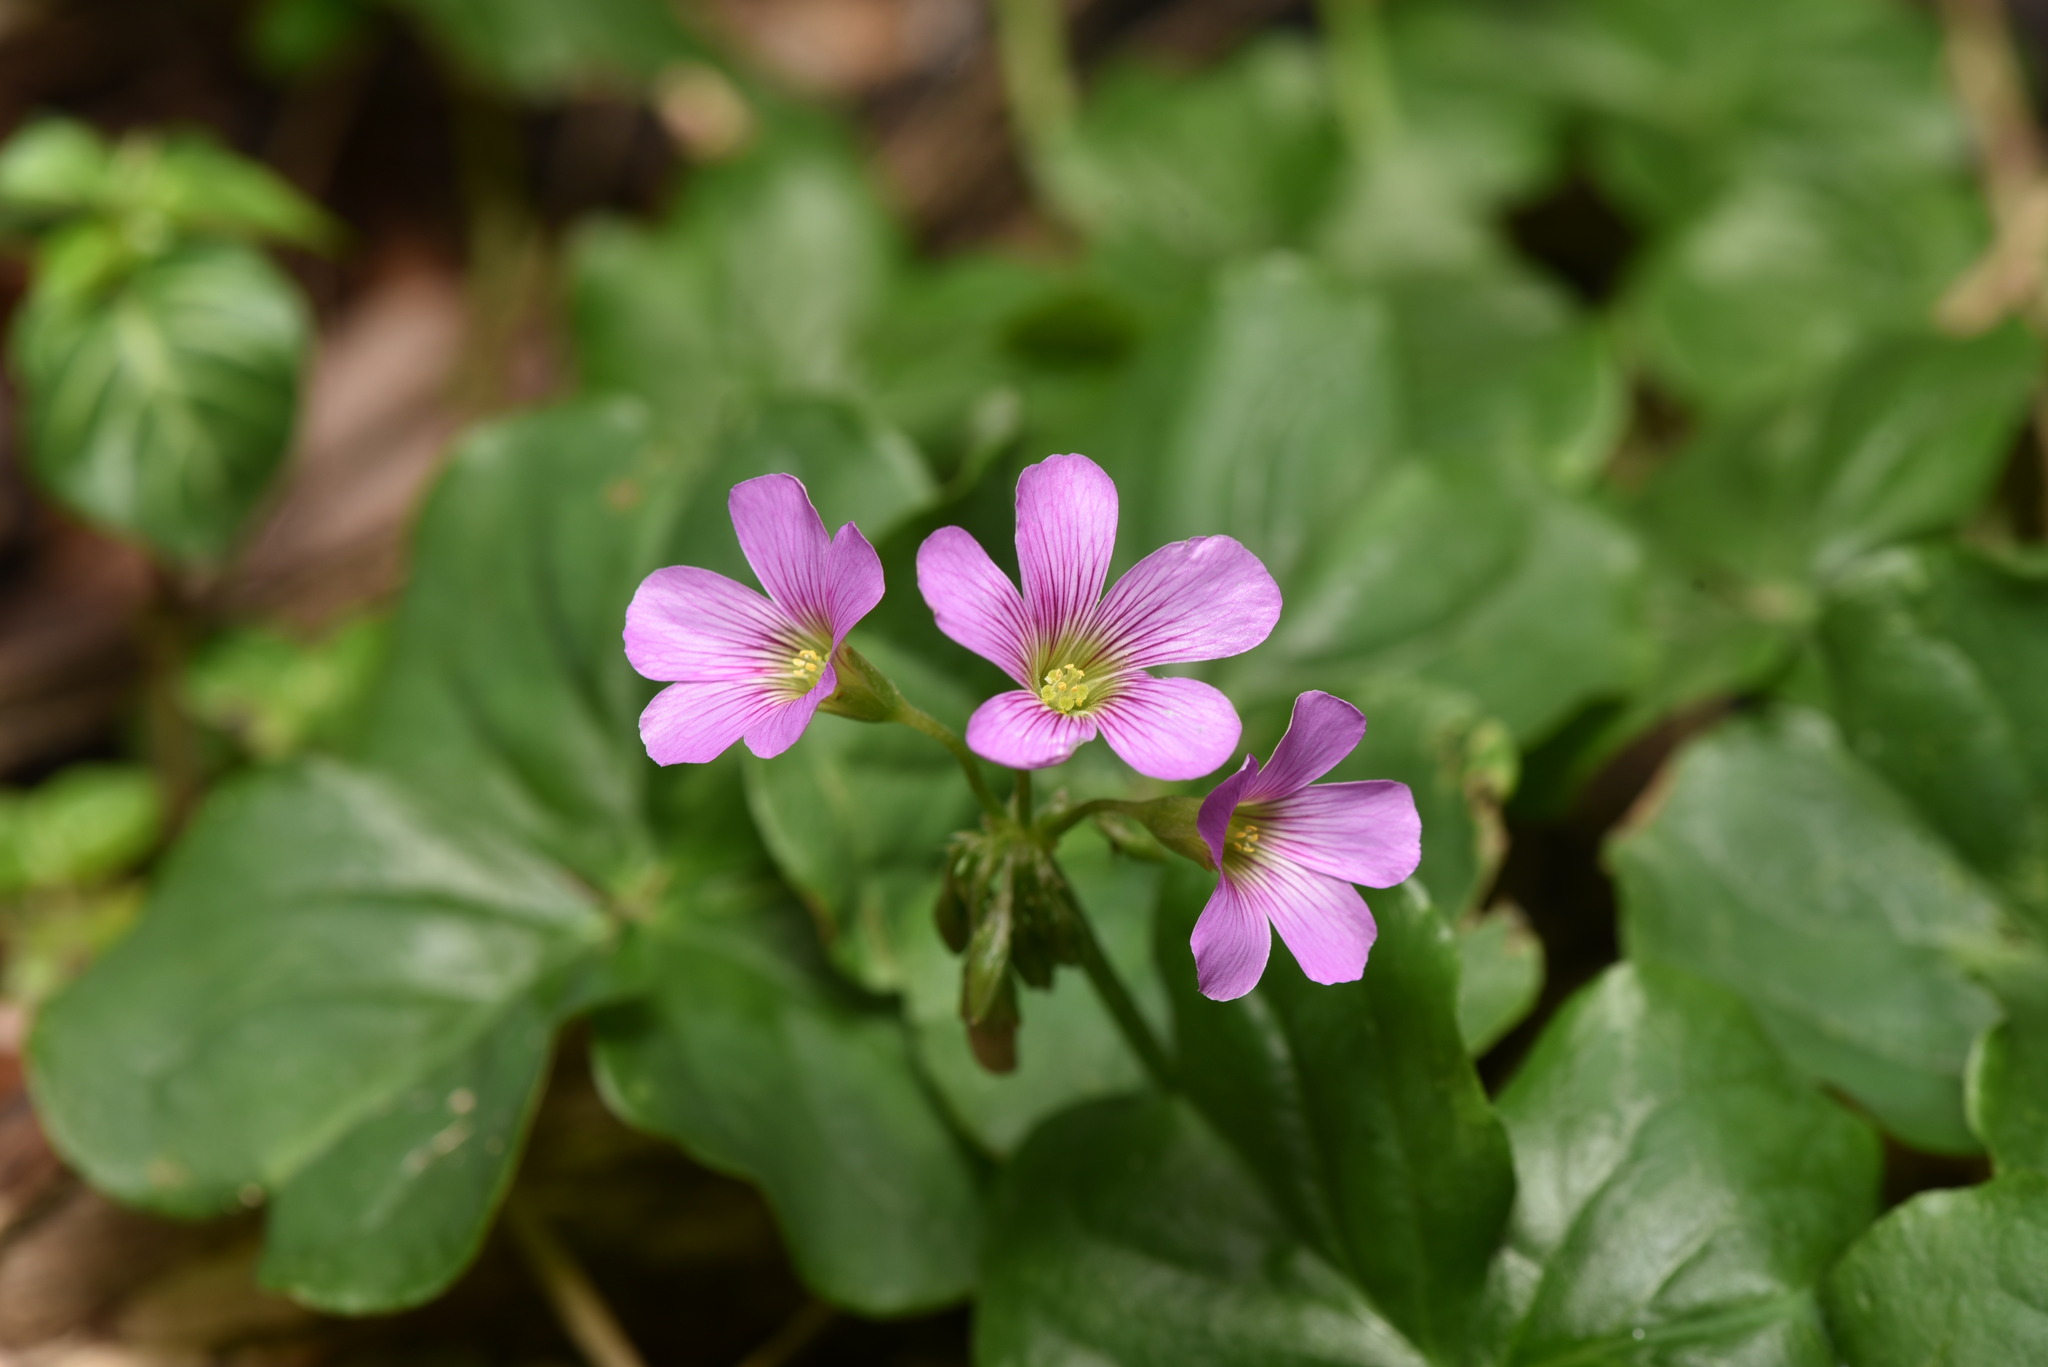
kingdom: Plantae
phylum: Tracheophyta
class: Magnoliopsida
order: Oxalidales
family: Oxalidaceae
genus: Oxalis
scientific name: Oxalis debilis
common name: Large-flowered pink-sorrel
